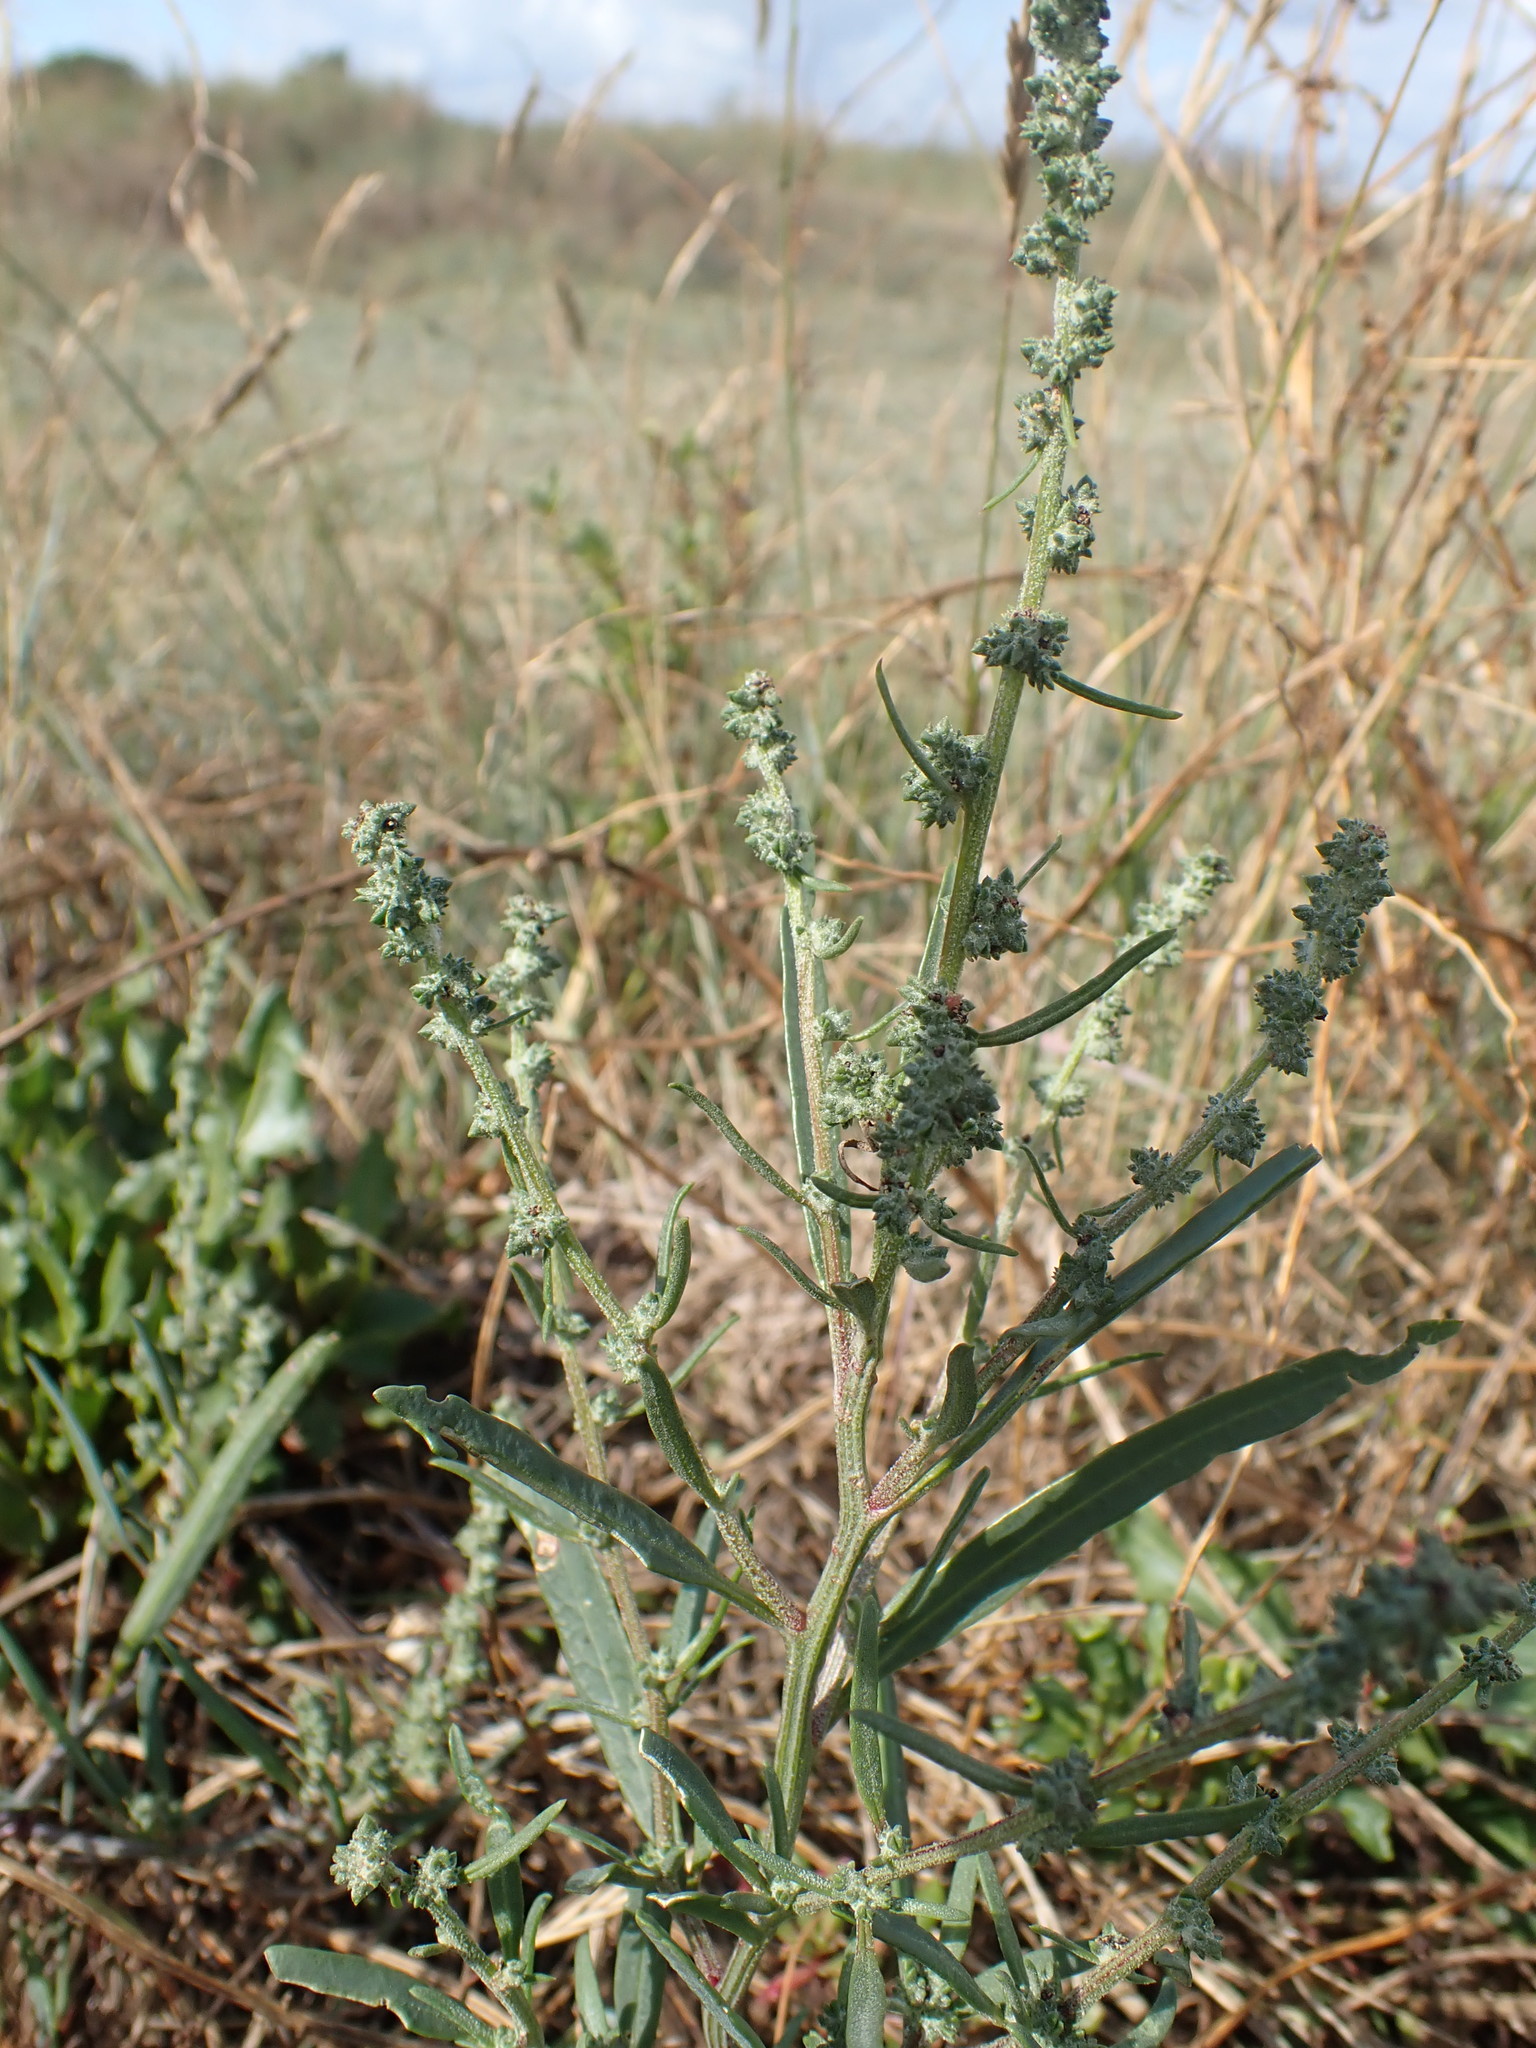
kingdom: Plantae
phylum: Tracheophyta
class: Magnoliopsida
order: Caryophyllales
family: Amaranthaceae
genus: Atriplex
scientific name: Atriplex littoralis
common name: Grass-leaved orache
